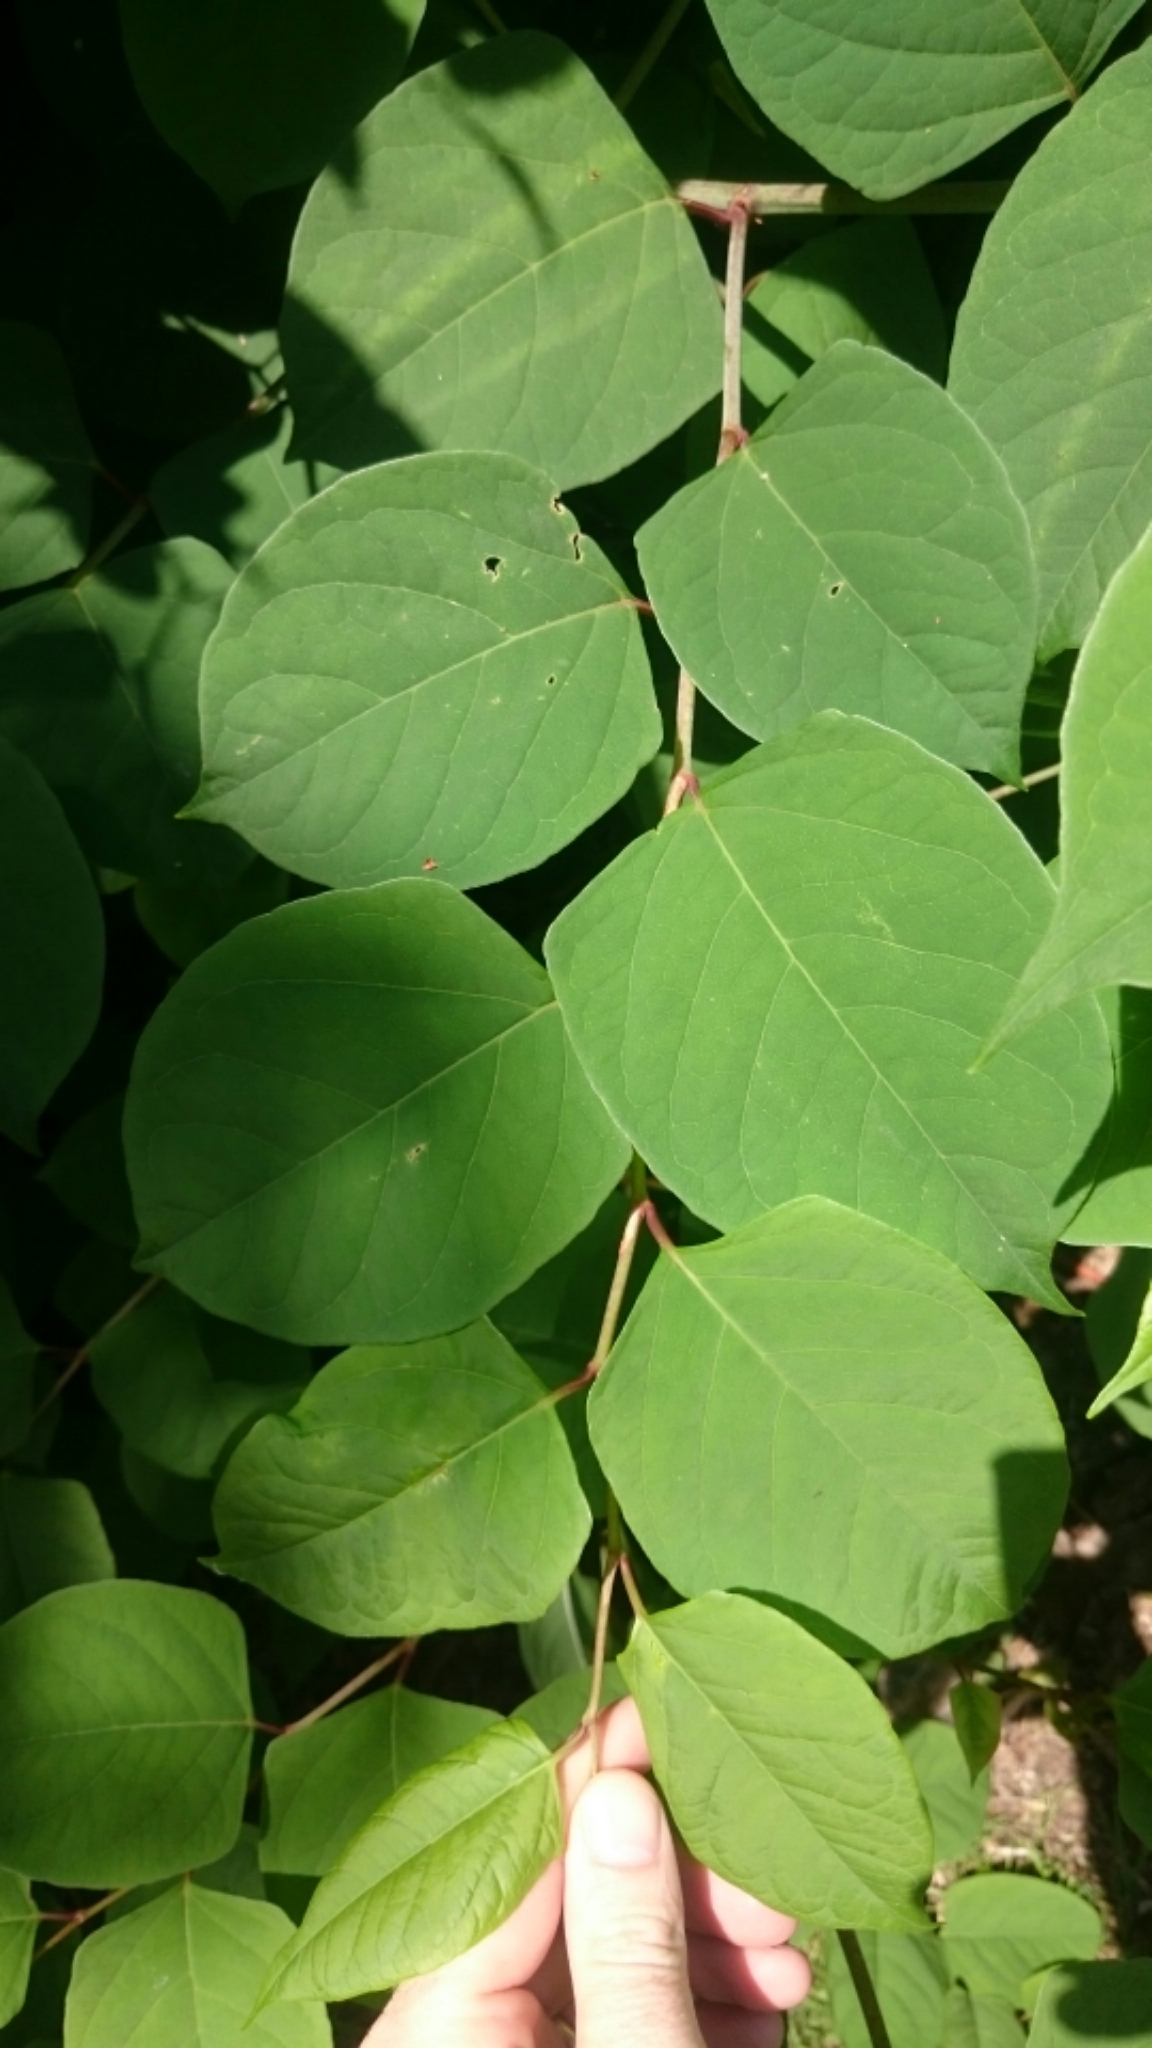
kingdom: Plantae
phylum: Tracheophyta
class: Magnoliopsida
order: Caryophyllales
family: Polygonaceae
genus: Reynoutria
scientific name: Reynoutria japonica
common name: Japanese knotweed
